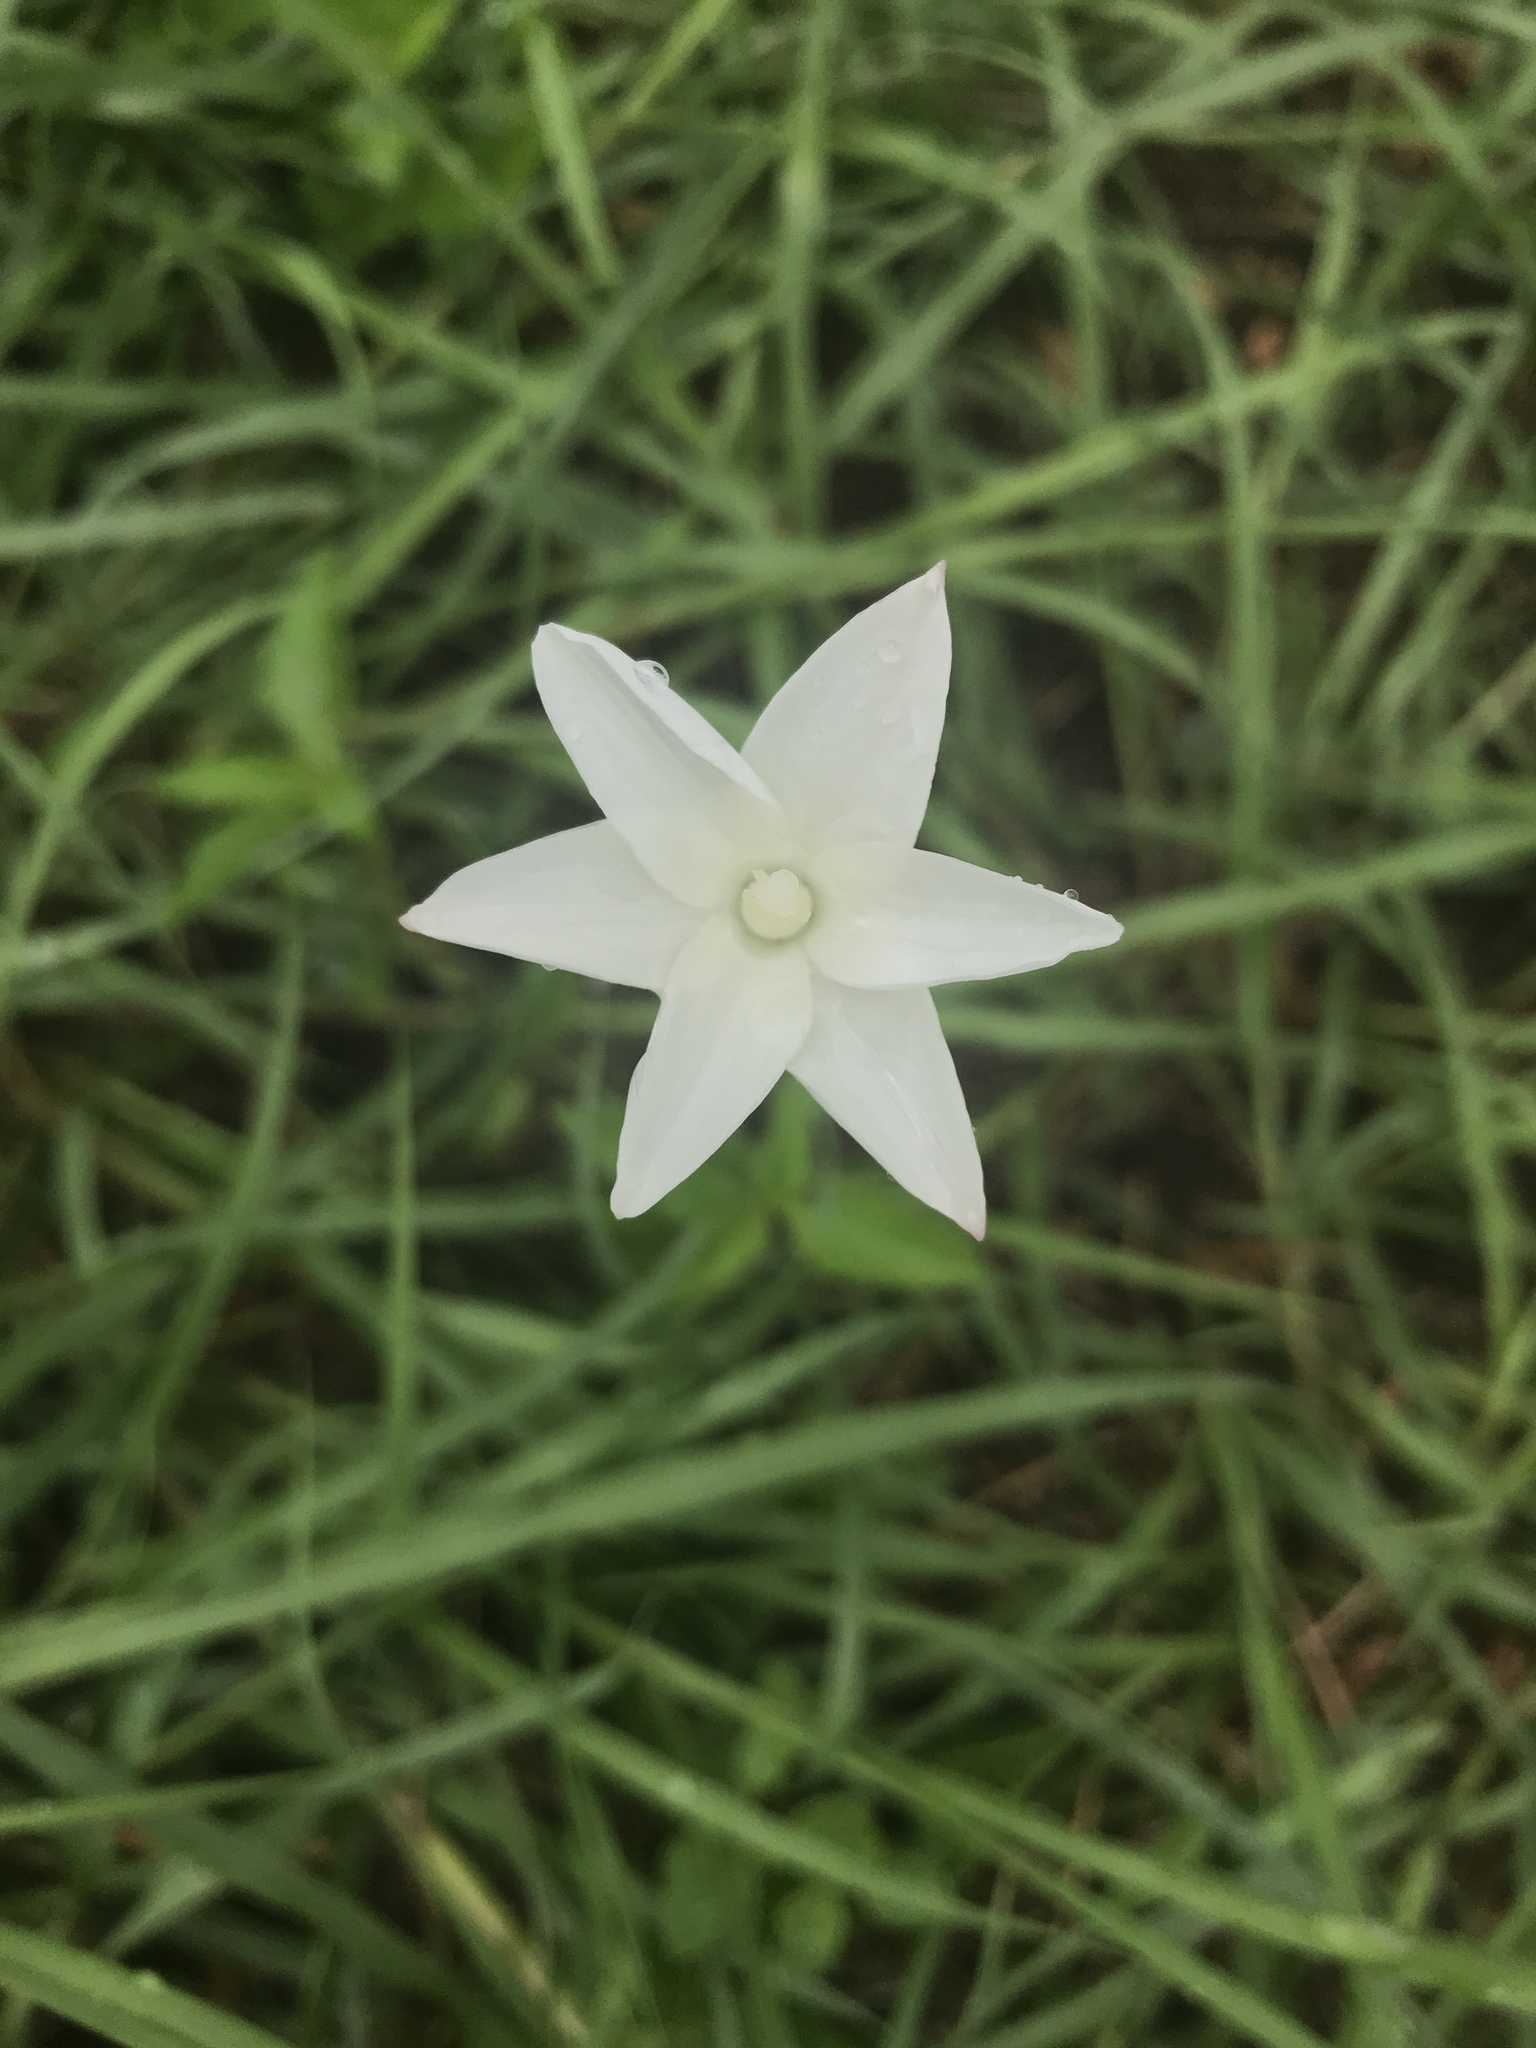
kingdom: Plantae
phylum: Tracheophyta
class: Liliopsida
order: Asparagales
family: Amaryllidaceae
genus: Zephyranthes
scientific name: Zephyranthes chlorosolen
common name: Evening rain-lily
